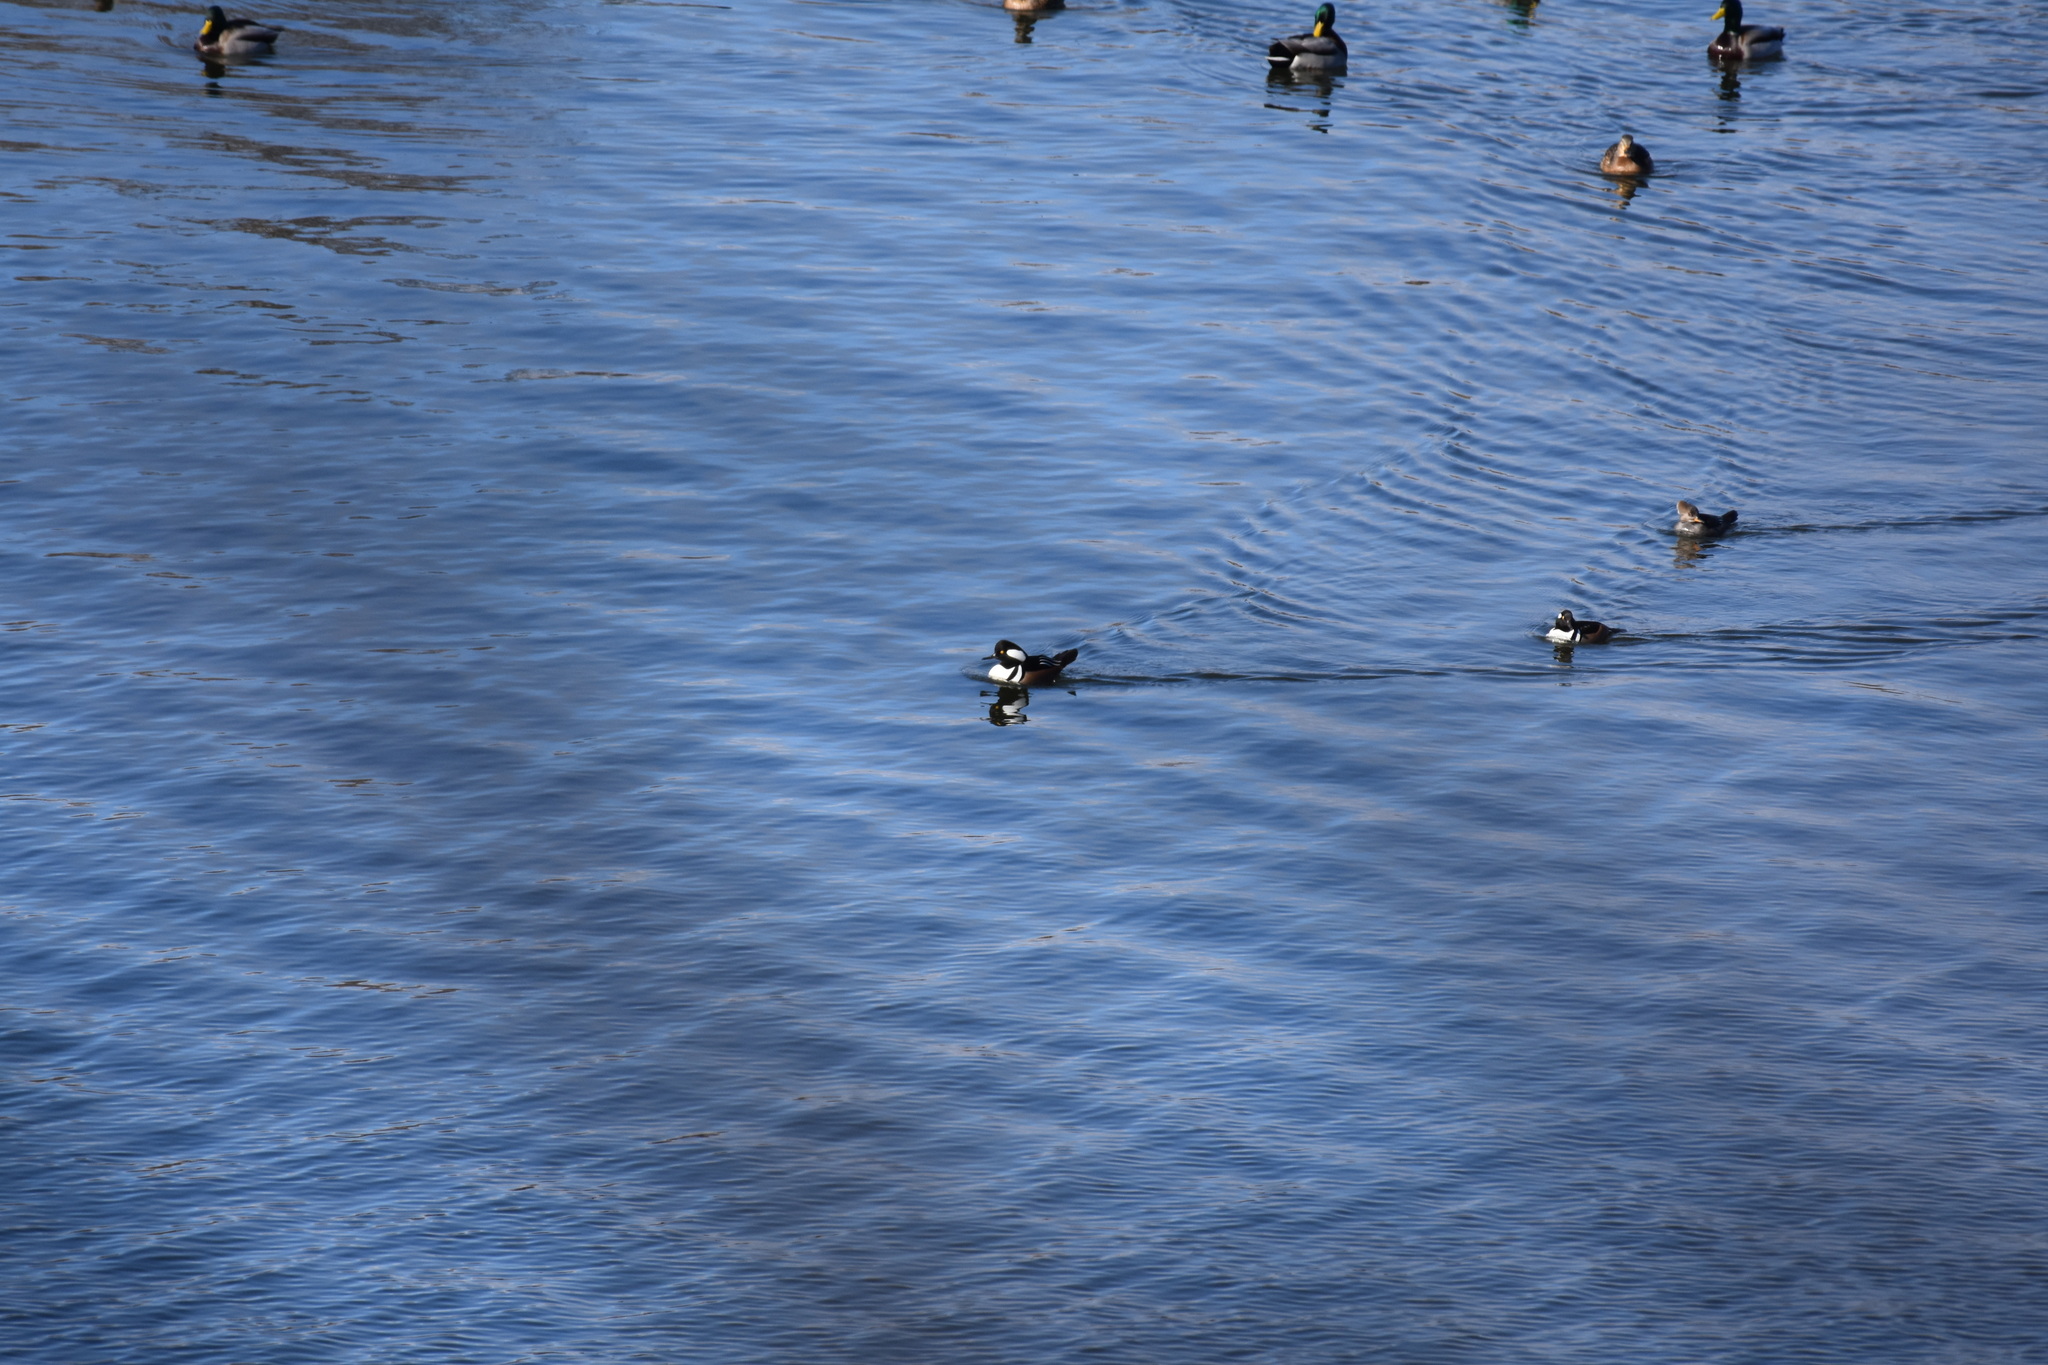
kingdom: Animalia
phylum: Chordata
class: Aves
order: Anseriformes
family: Anatidae
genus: Lophodytes
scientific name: Lophodytes cucullatus
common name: Hooded merganser
